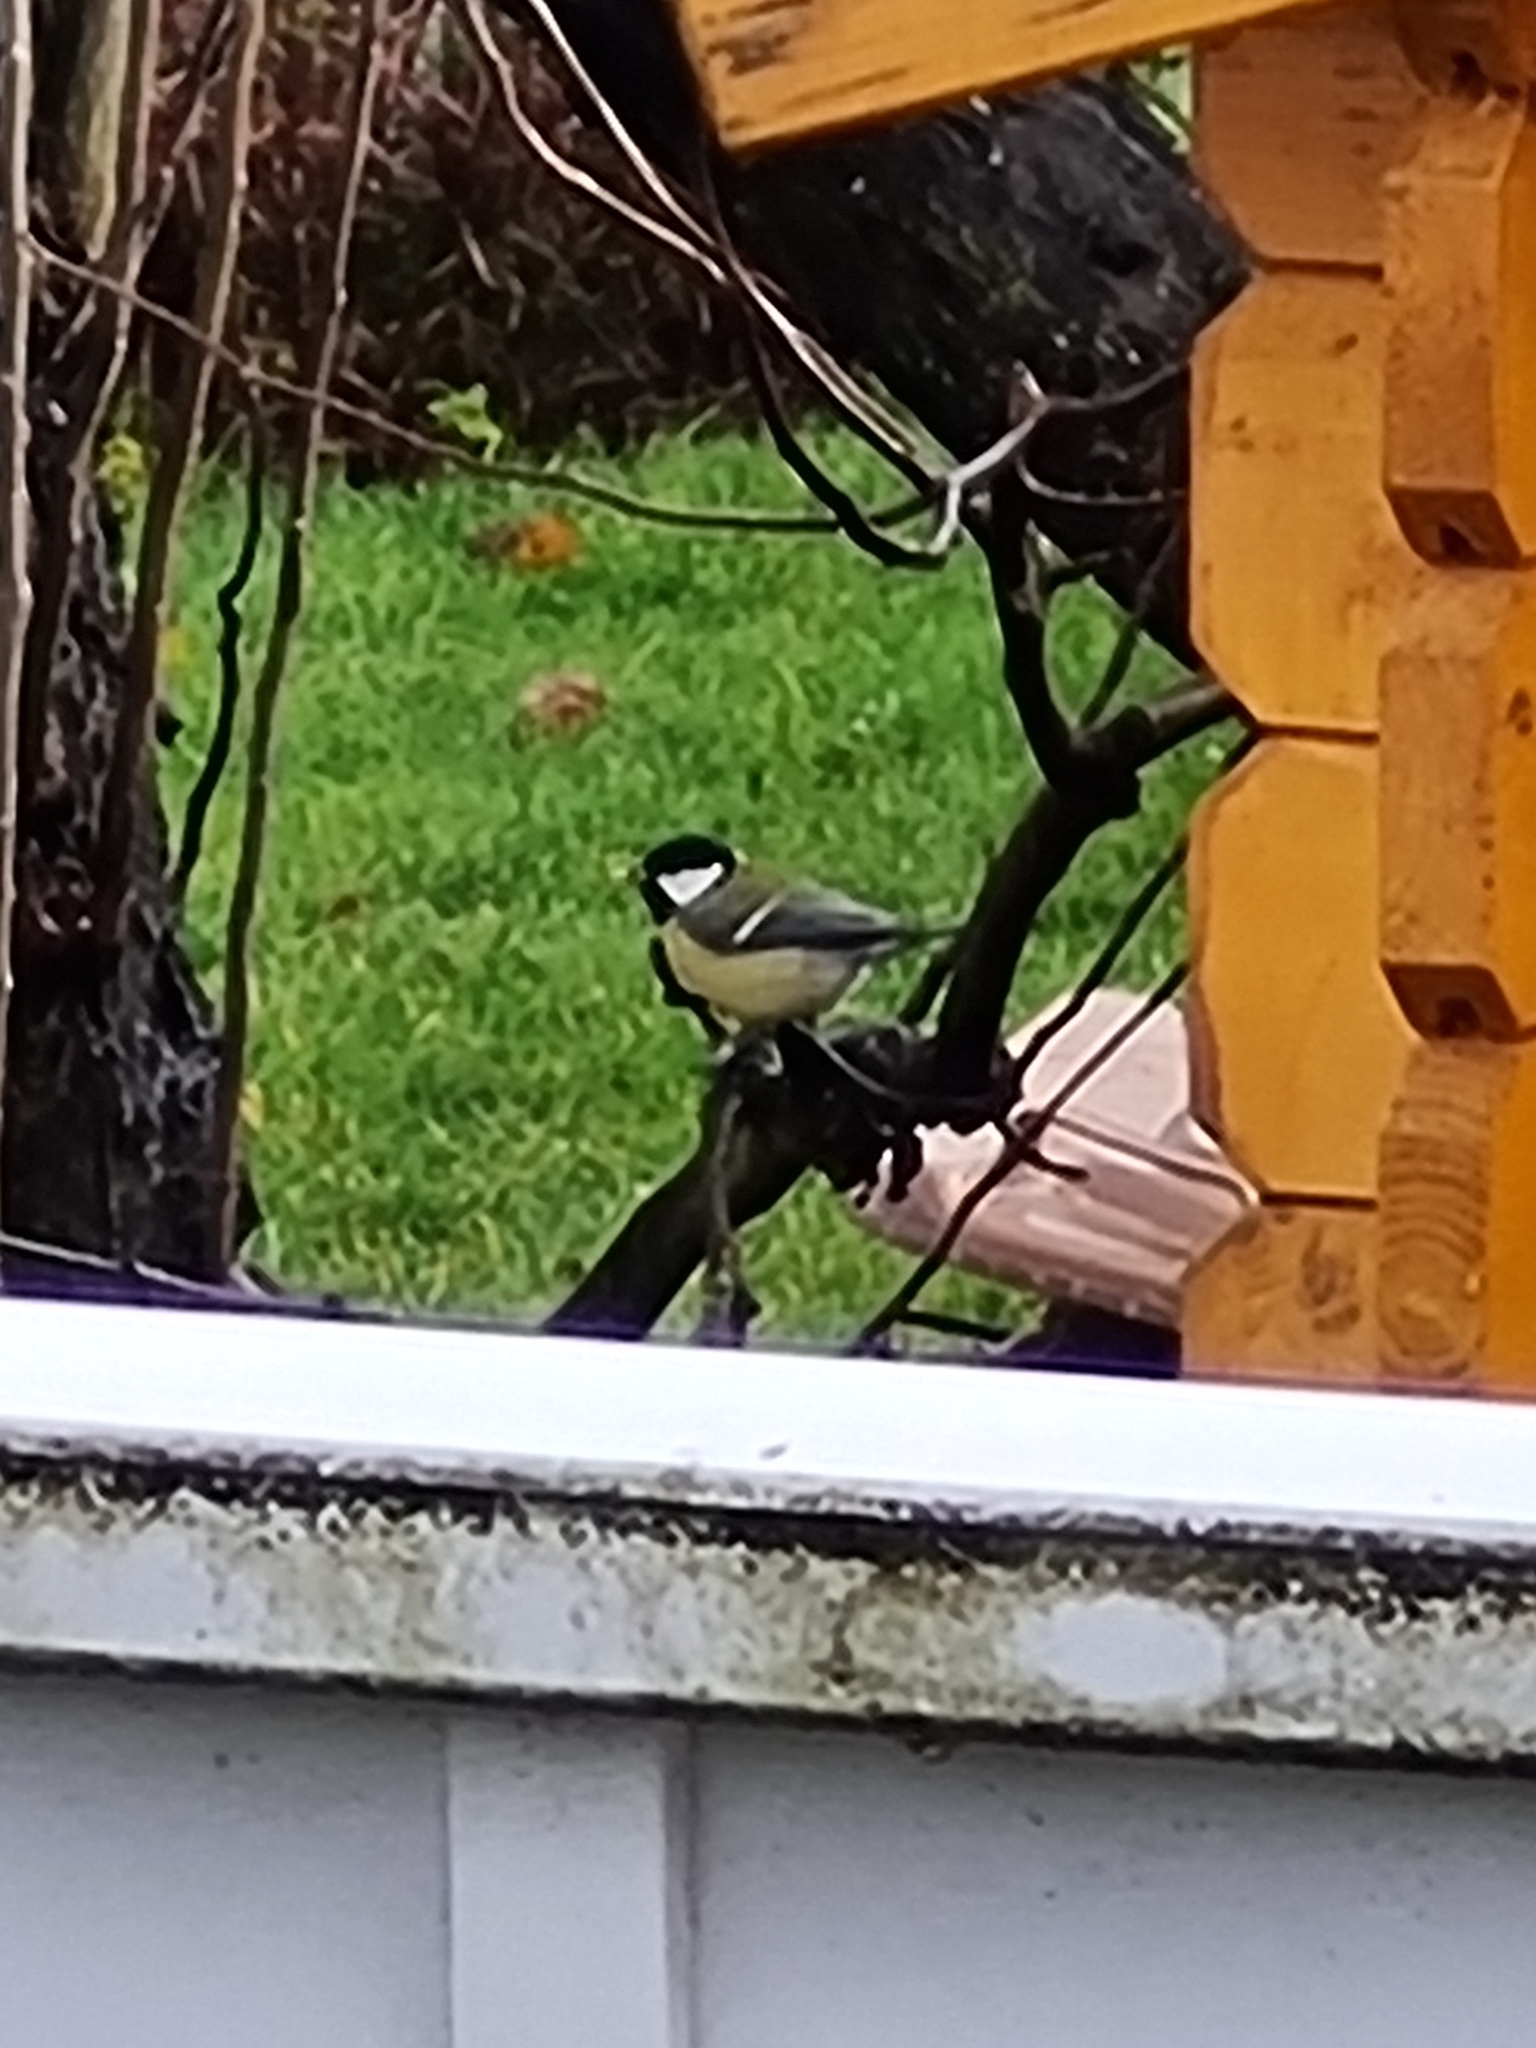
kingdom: Animalia
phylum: Chordata
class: Aves
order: Passeriformes
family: Paridae
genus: Parus
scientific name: Parus major
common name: Great tit
